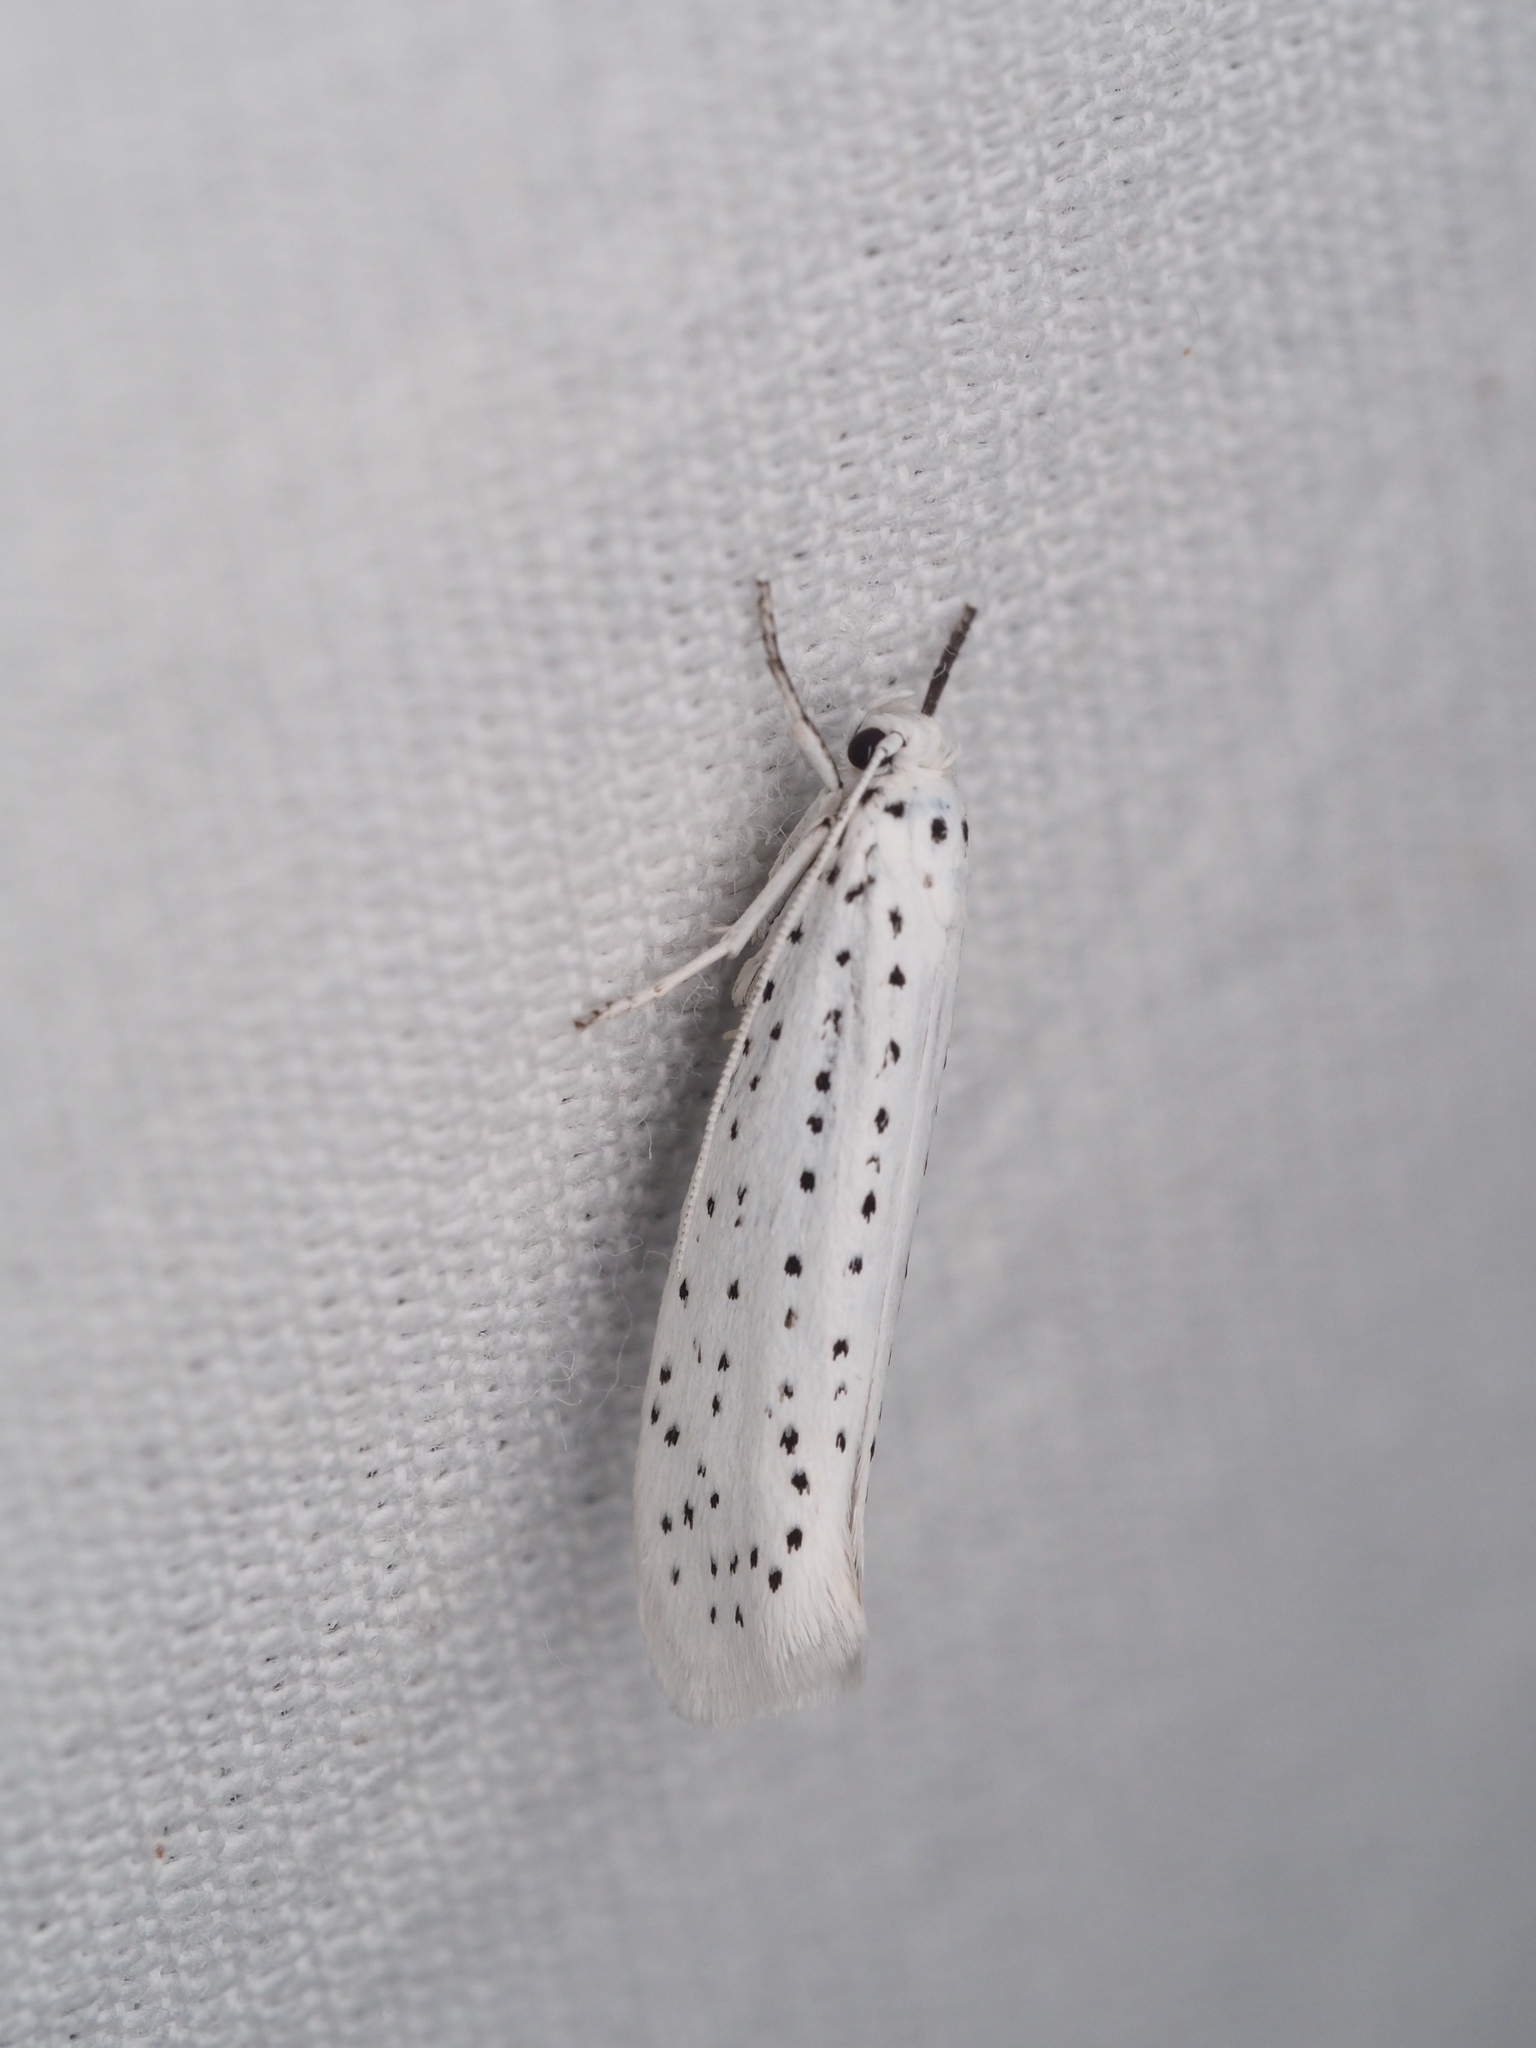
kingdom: Animalia
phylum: Arthropoda
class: Insecta
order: Lepidoptera
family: Yponomeutidae
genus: Yponomeuta
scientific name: Yponomeuta evonymella
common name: Bird-cherry ermine
